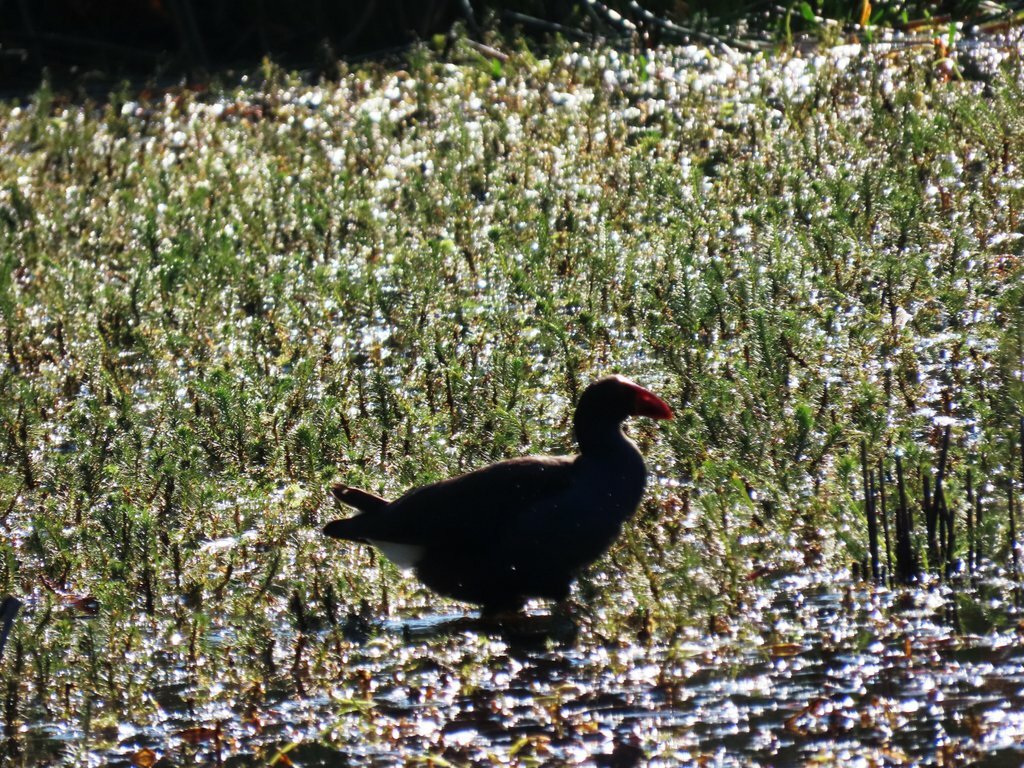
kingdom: Animalia
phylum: Chordata
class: Aves
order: Gruiformes
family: Rallidae
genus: Porphyrio
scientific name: Porphyrio melanotus
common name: Australasian swamphen
